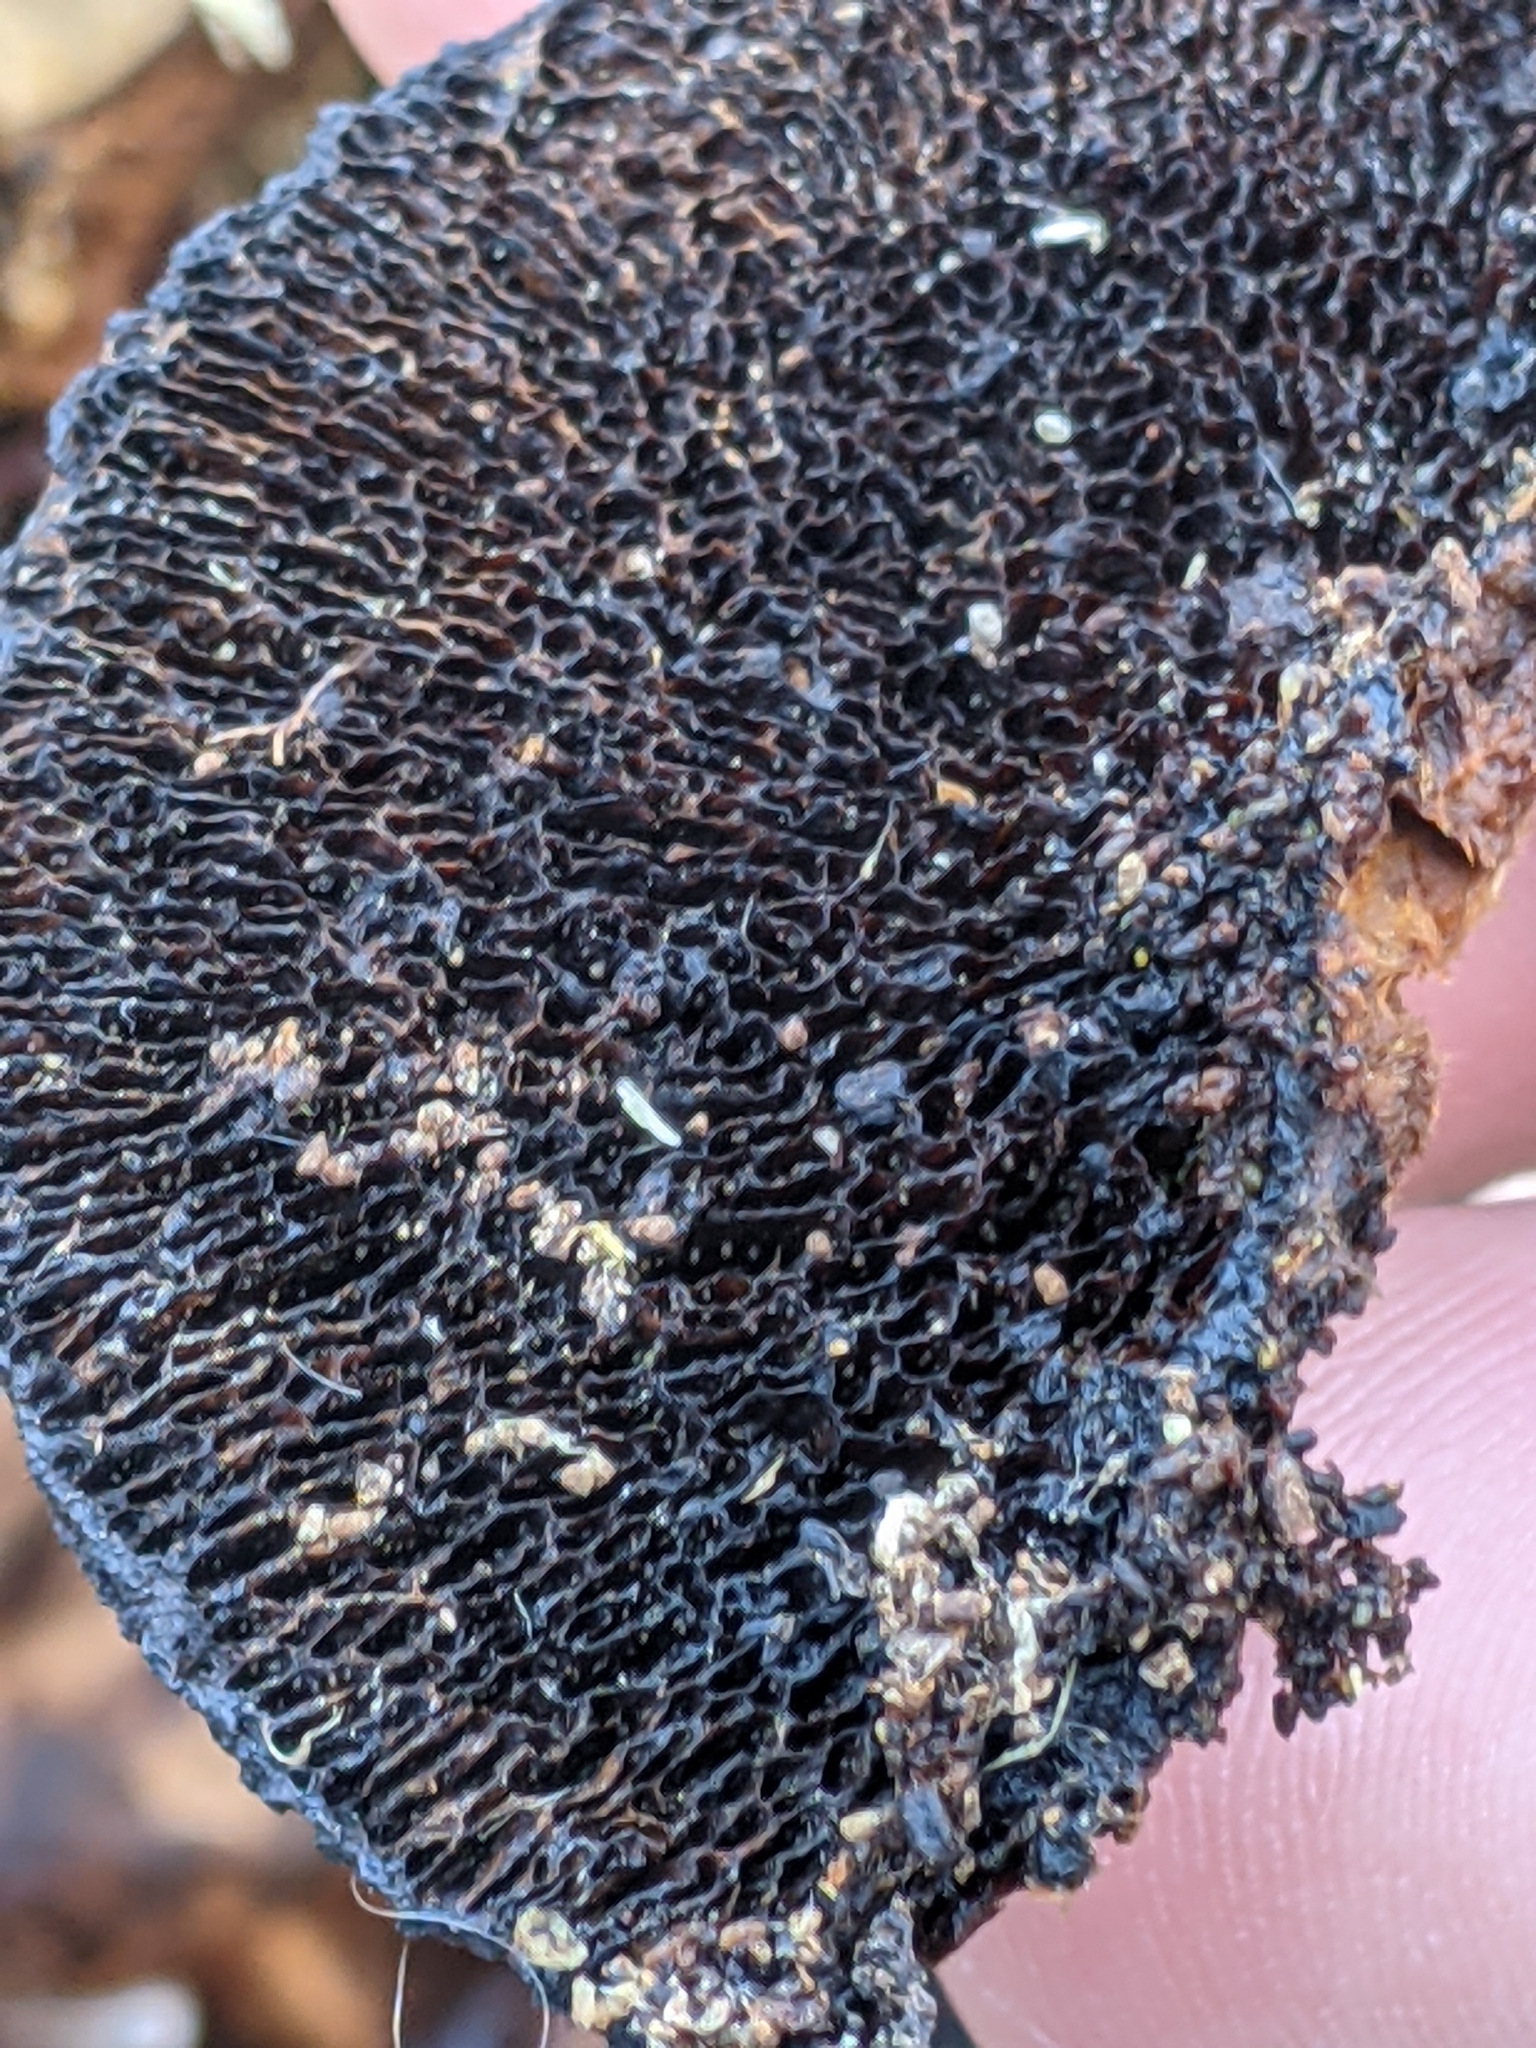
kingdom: Fungi
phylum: Basidiomycota
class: Agaricomycetes
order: Polyporales
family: Polyporaceae
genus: Daedaleopsis
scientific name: Daedaleopsis confragosa
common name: Blushing bracket
